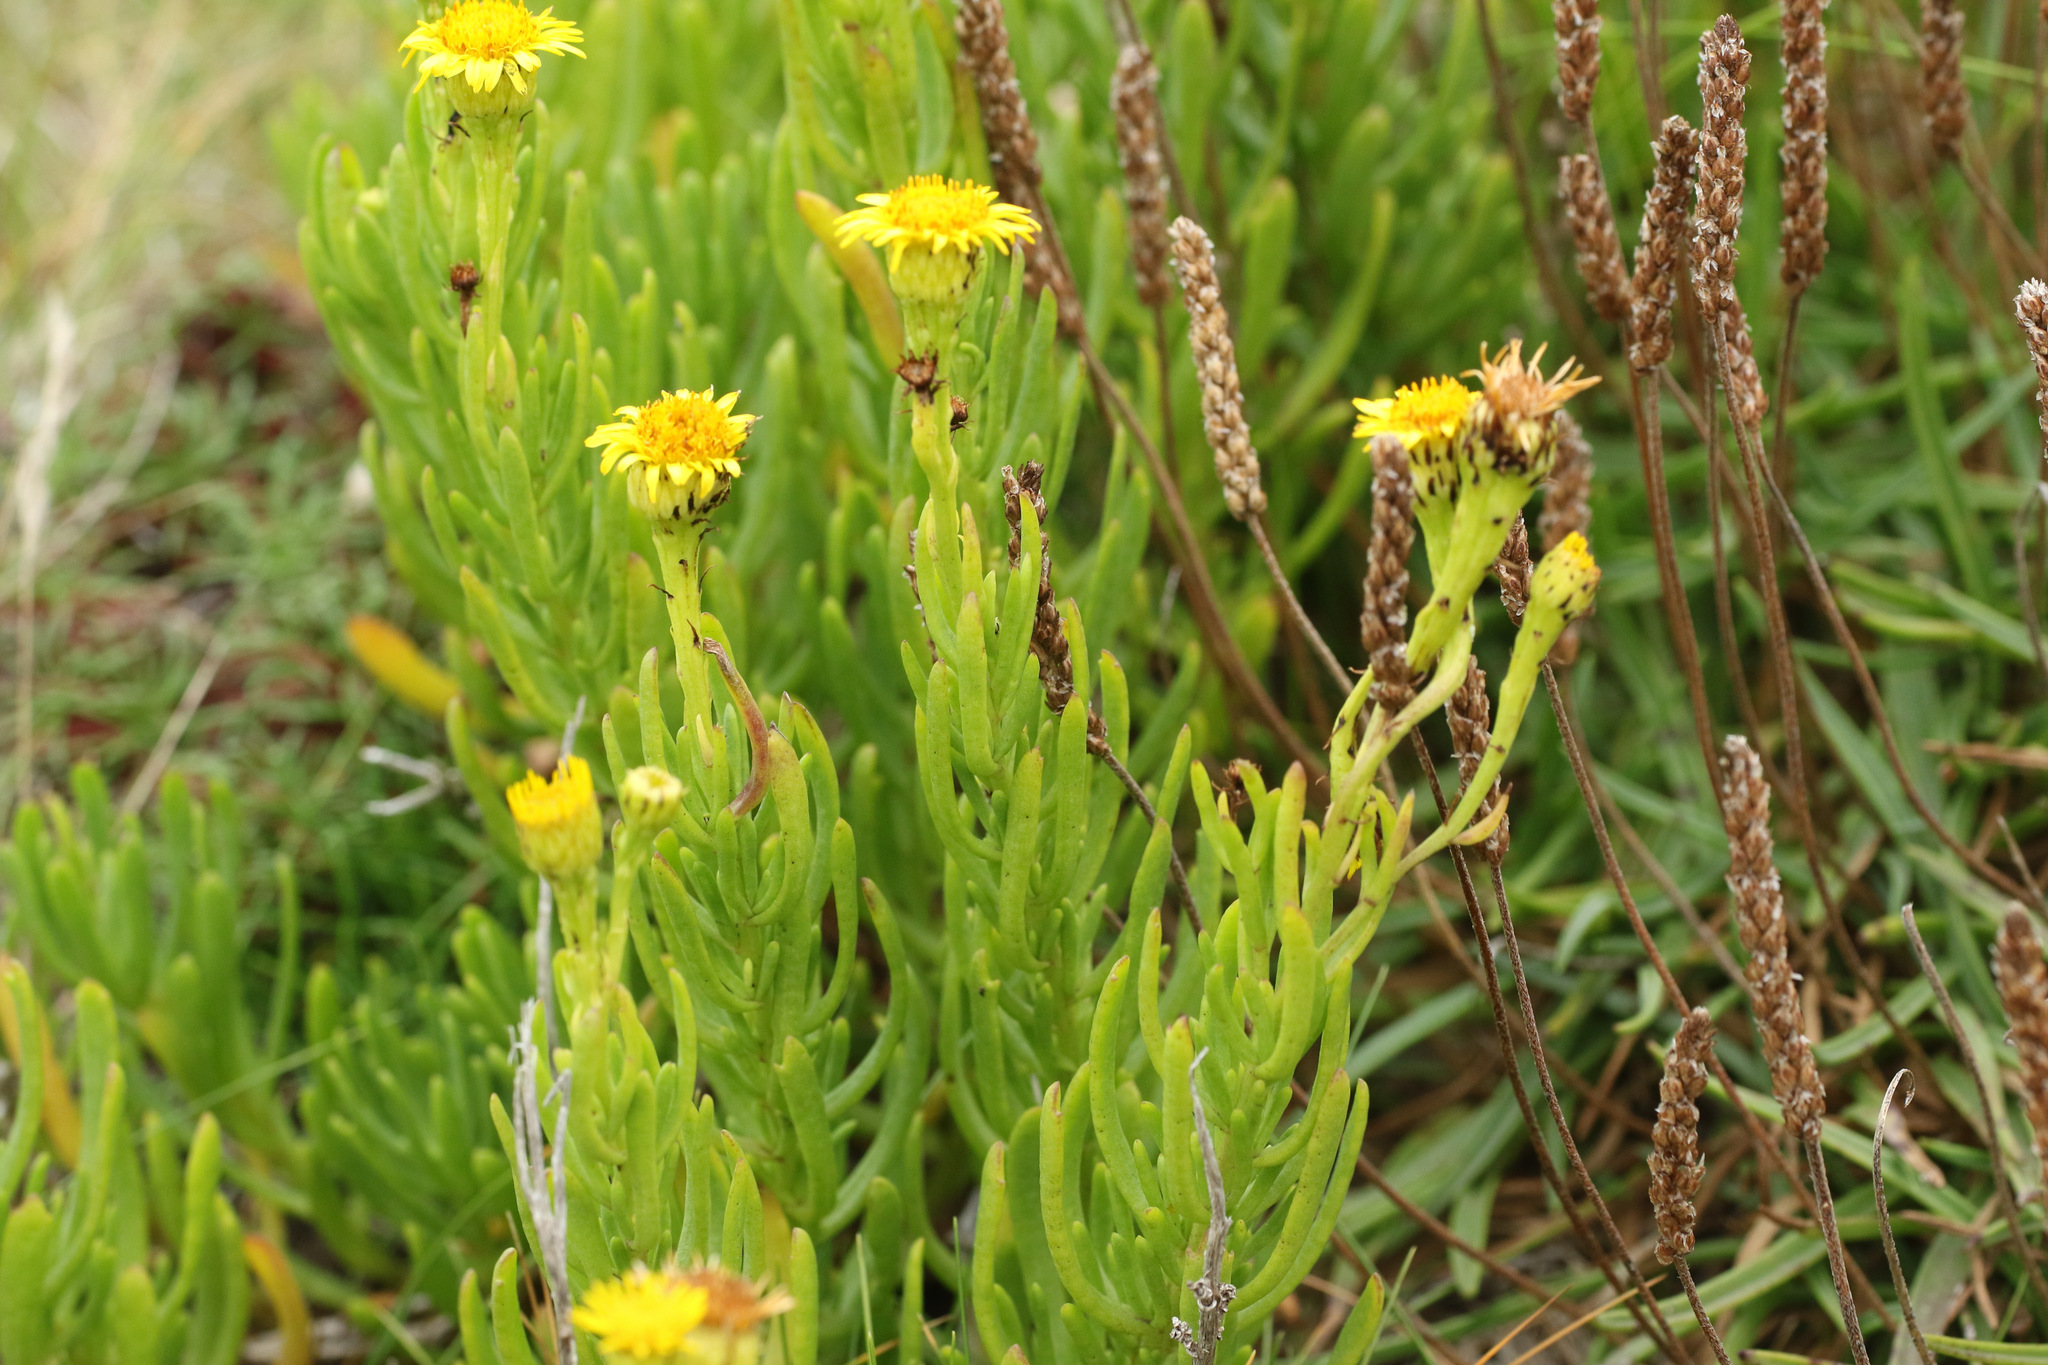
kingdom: Plantae
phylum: Tracheophyta
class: Magnoliopsida
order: Asterales
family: Asteraceae
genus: Limbarda
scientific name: Limbarda crithmoides
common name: Golden samphire
